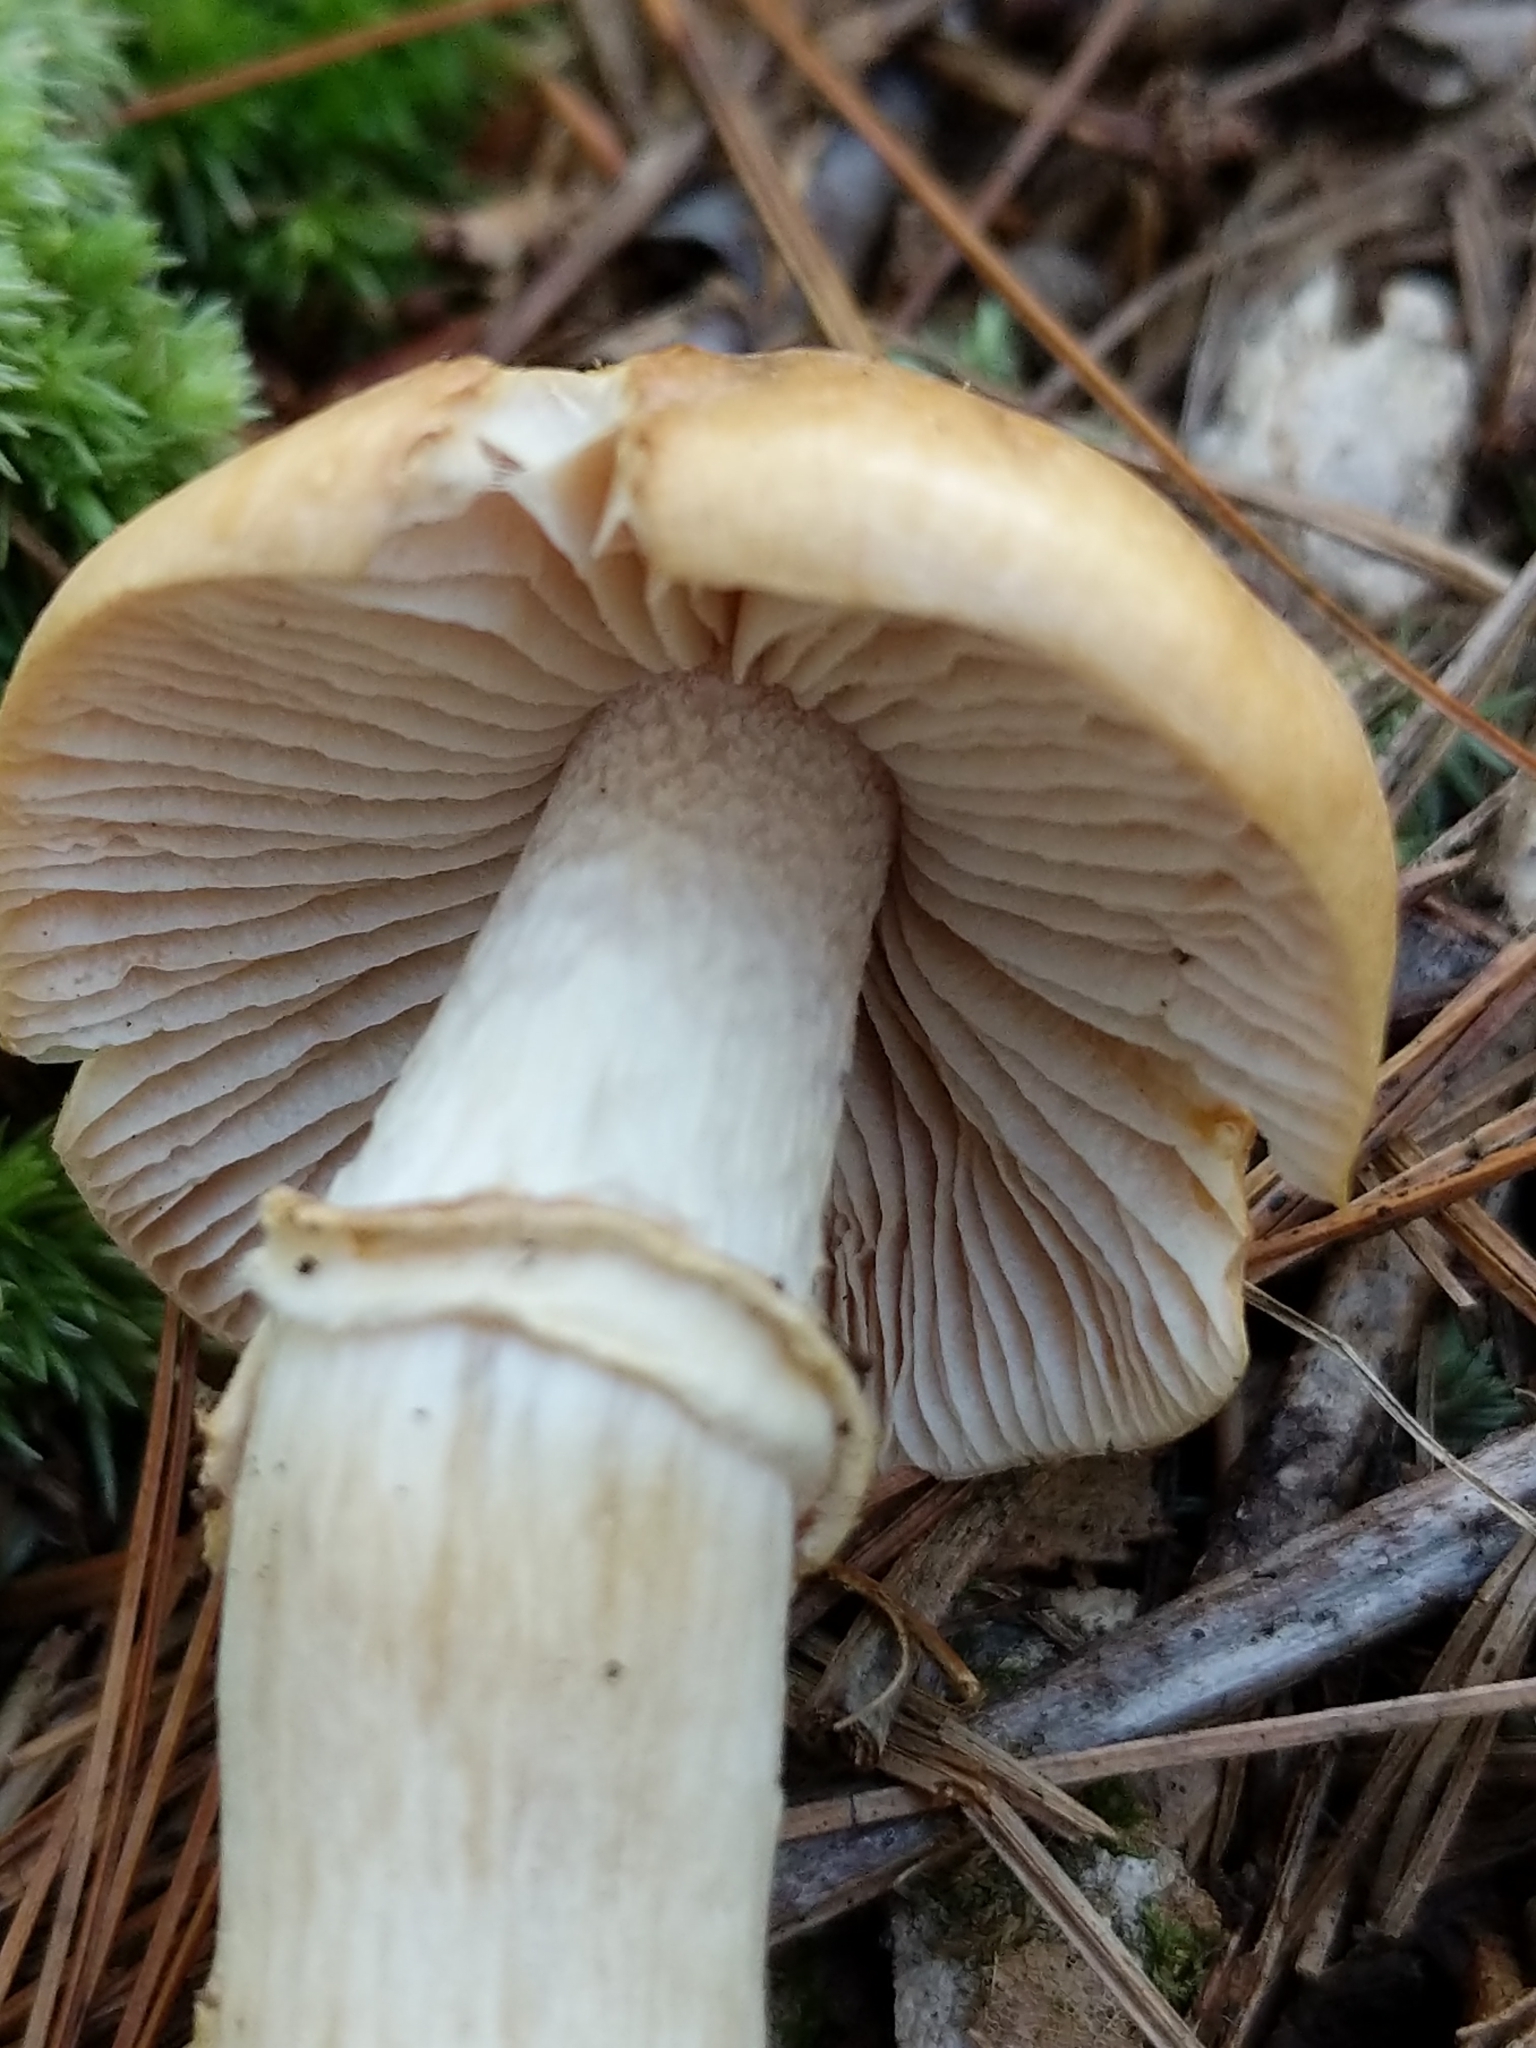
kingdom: Fungi
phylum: Basidiomycota
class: Agaricomycetes
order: Agaricales
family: Cortinariaceae
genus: Cortinarius
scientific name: Cortinarius caperatus
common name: The gypsy
